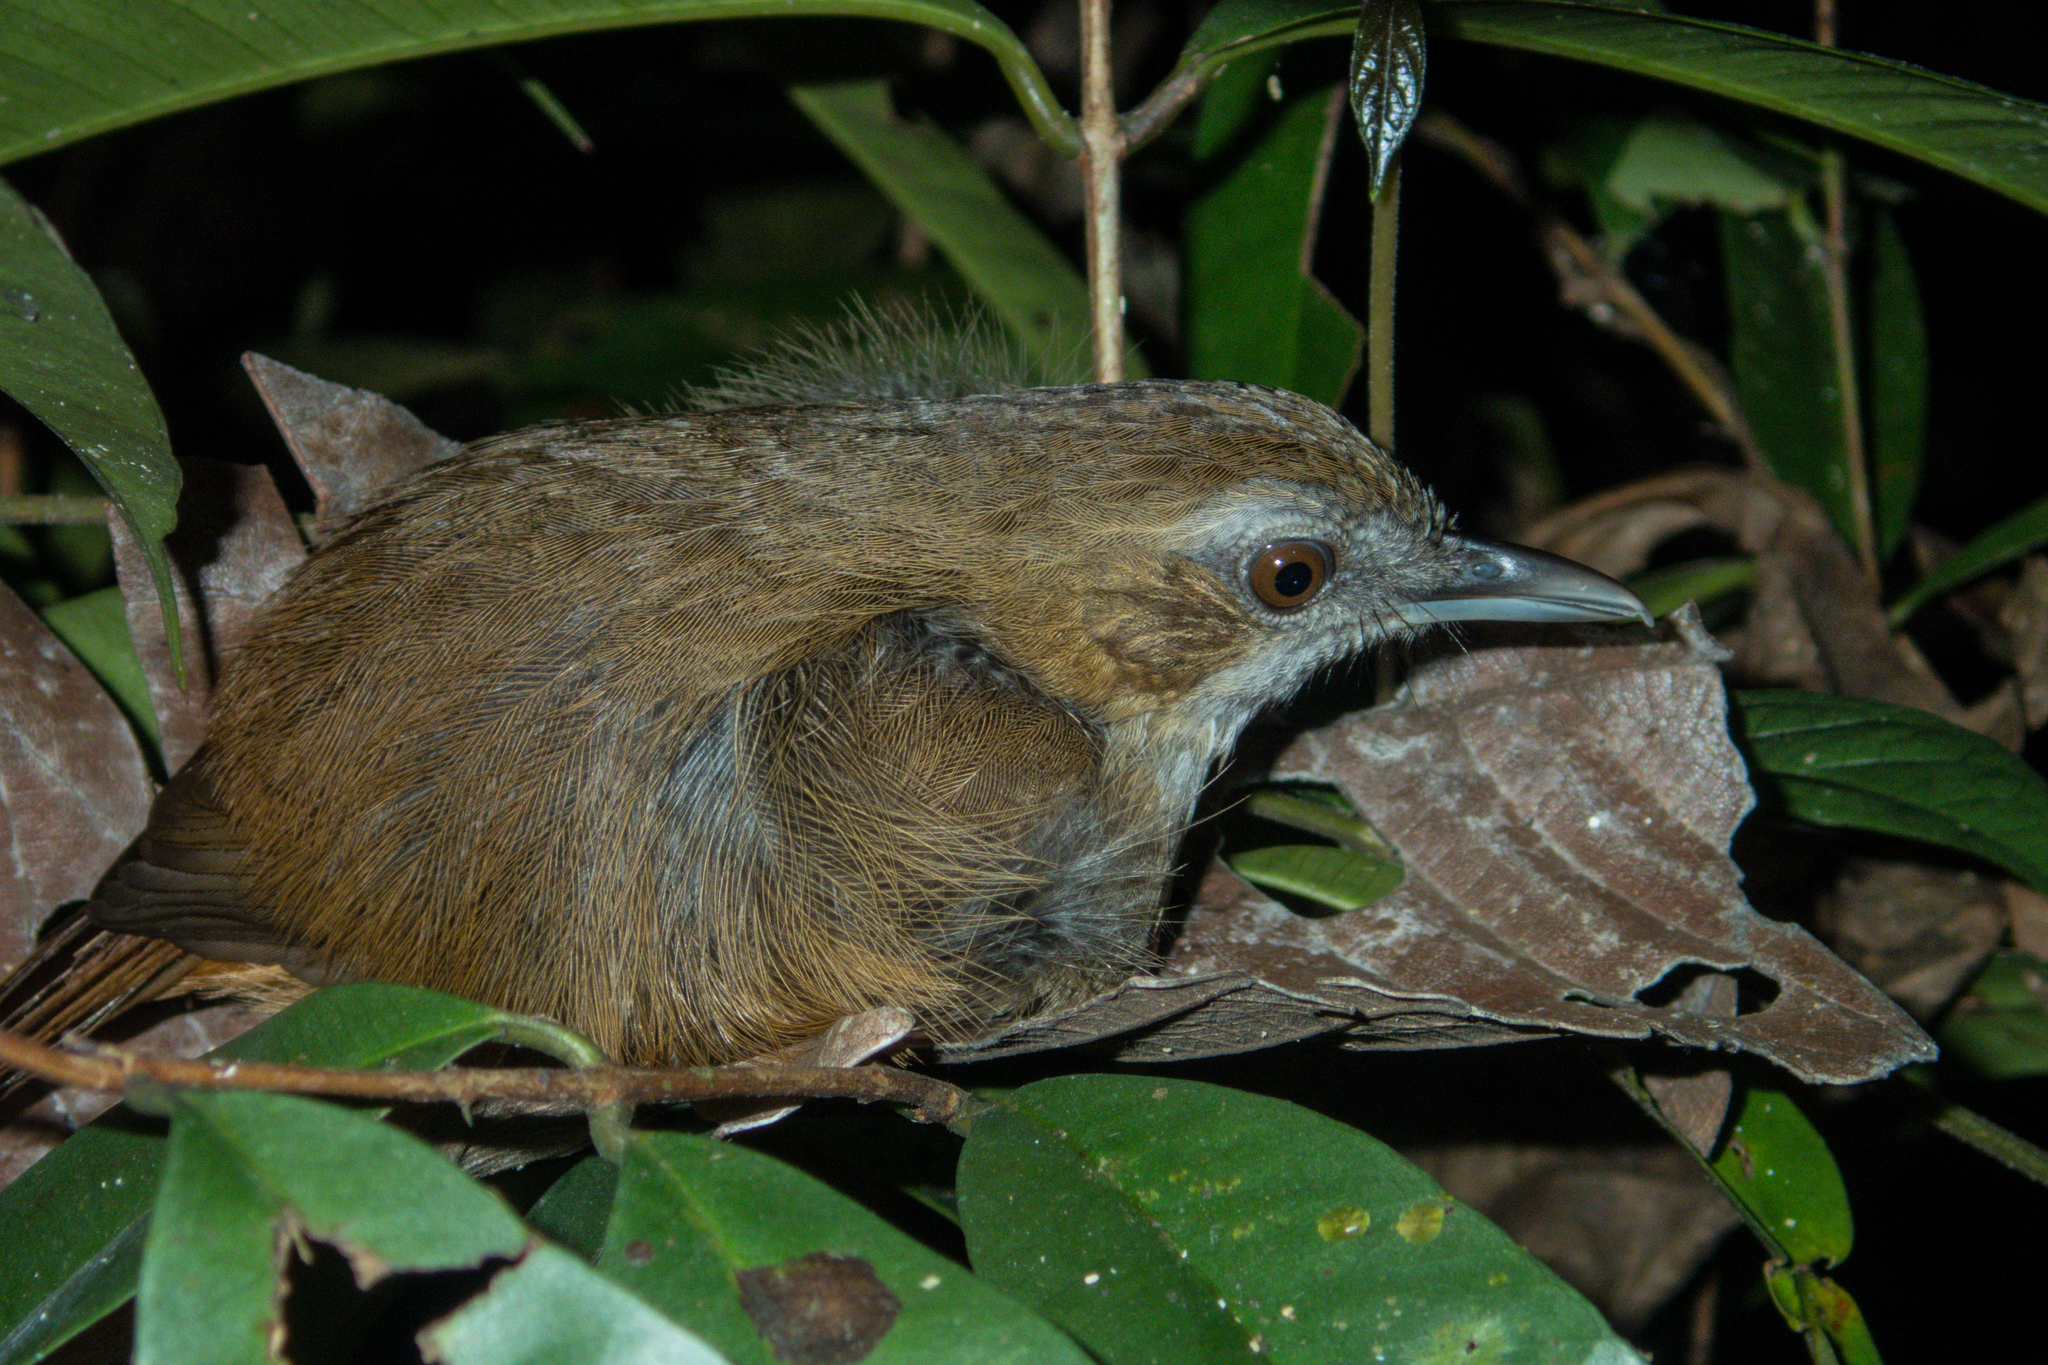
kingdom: Animalia
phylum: Chordata
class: Aves
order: Passeriformes
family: Pellorneidae
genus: Malacocincla
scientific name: Malacocincla abbotti
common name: Abbott's babbler
